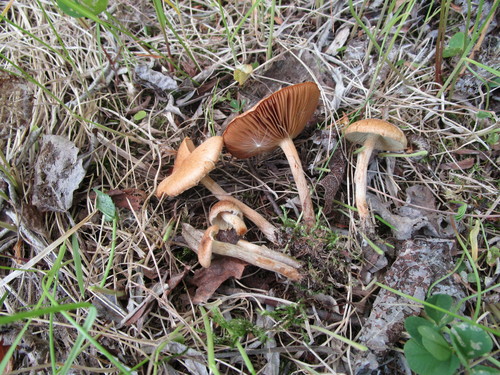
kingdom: Fungi
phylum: Basidiomycota
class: Agaricomycetes
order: Agaricales
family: Inocybaceae
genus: Inocybe
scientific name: Inocybe dulcamara
